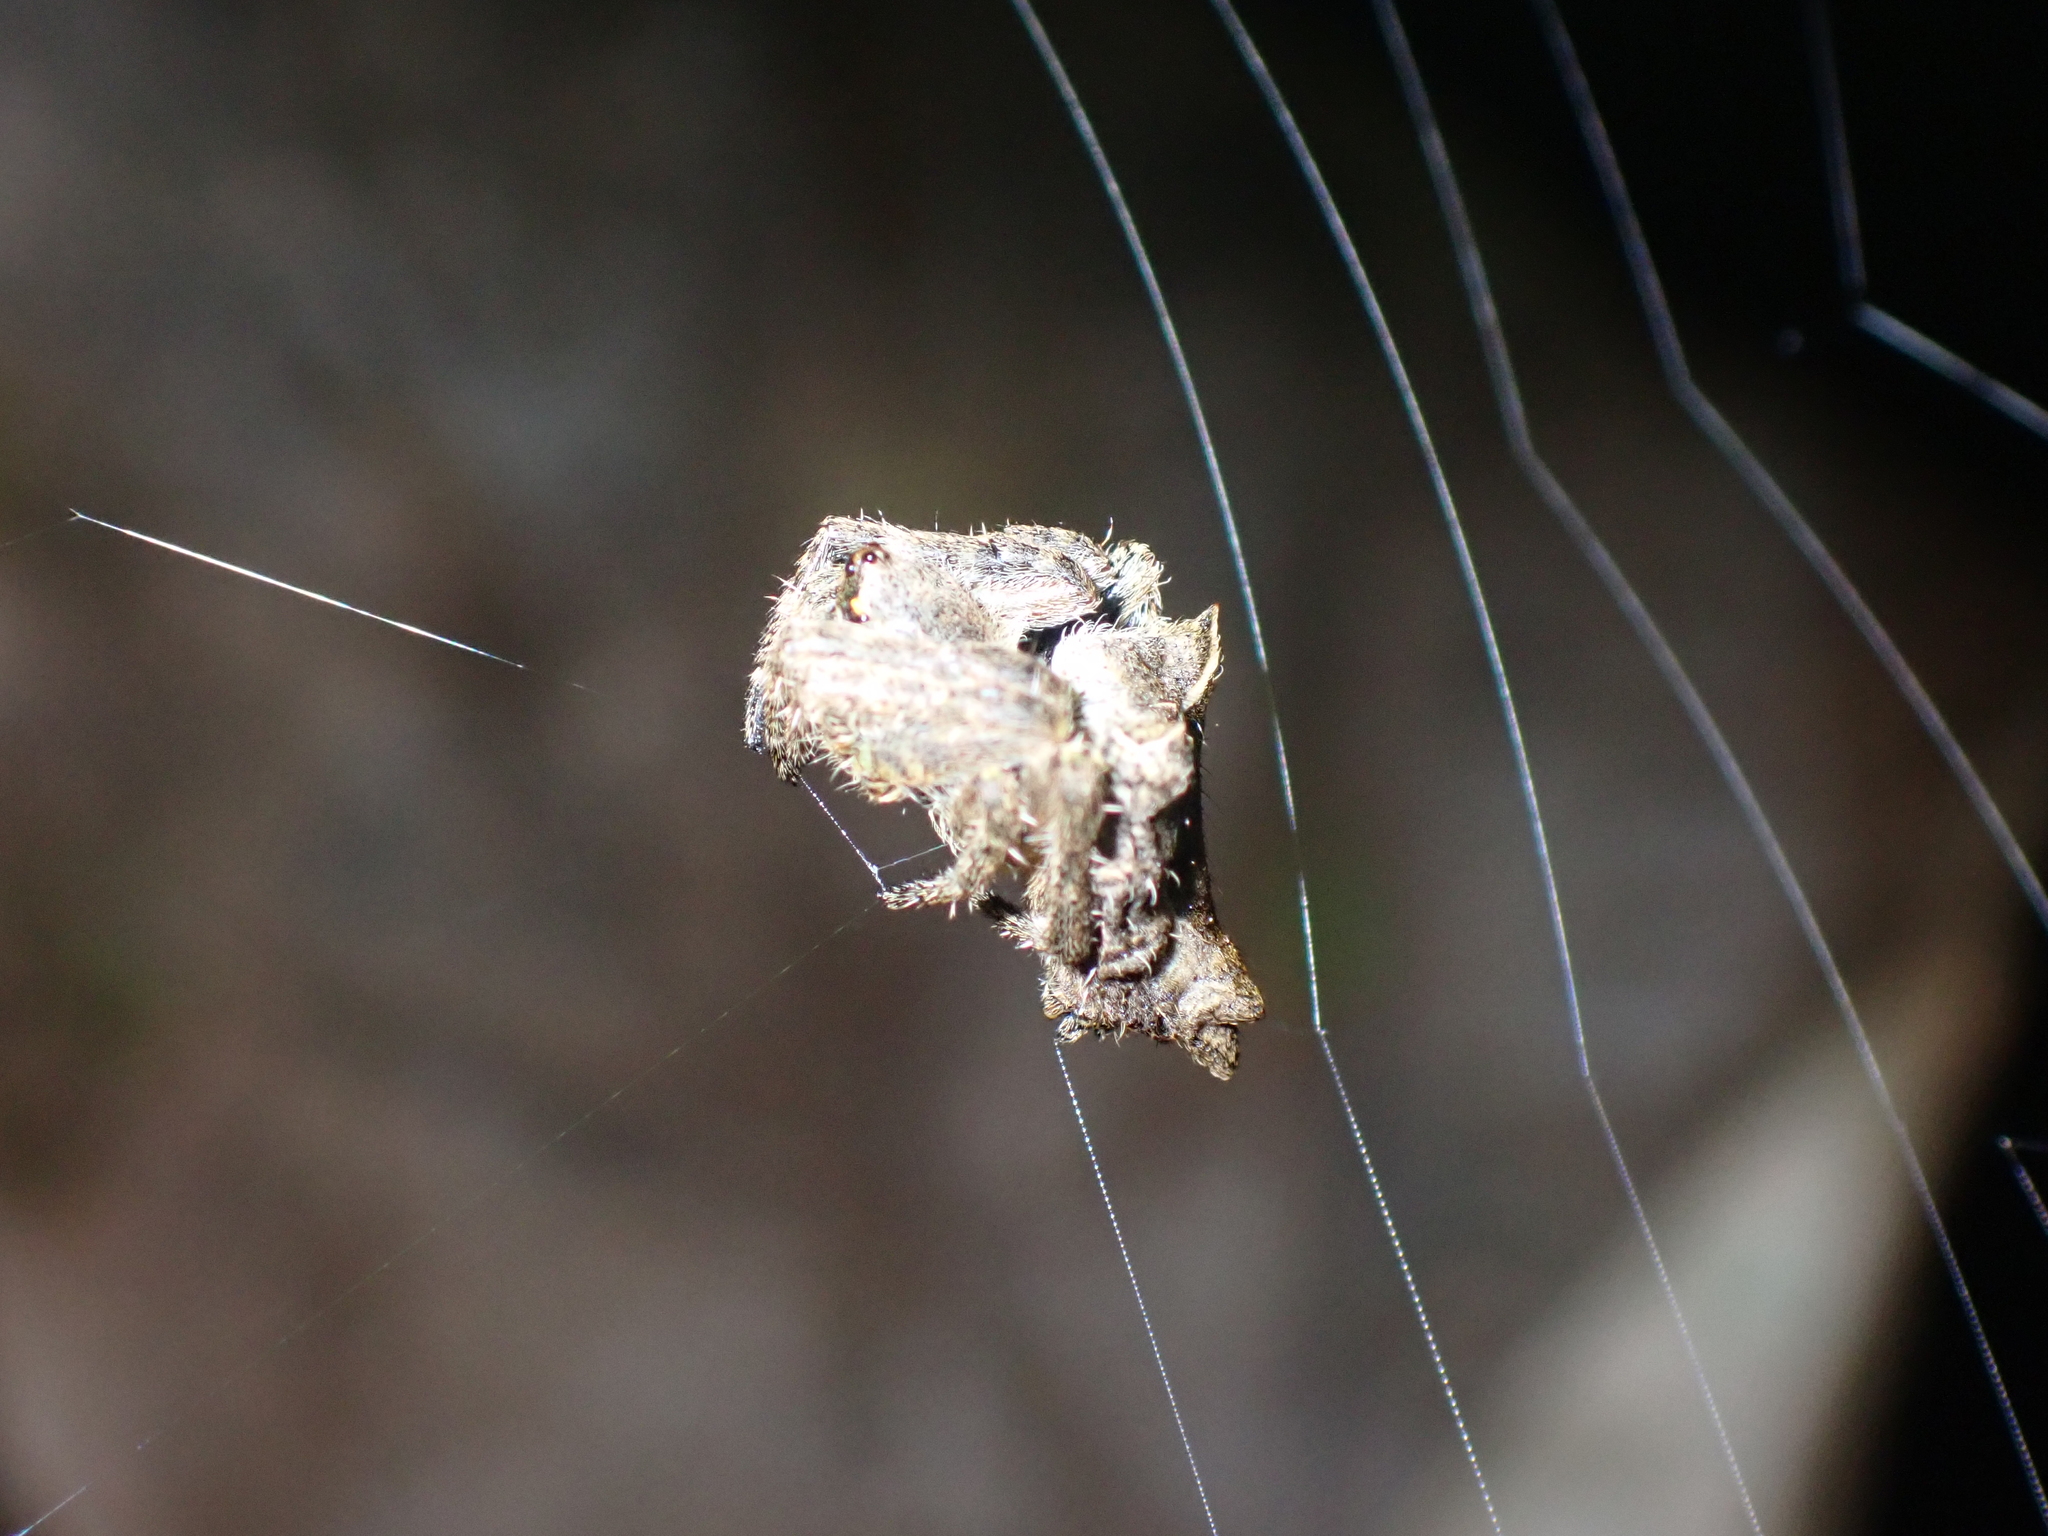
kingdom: Animalia
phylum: Arthropoda
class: Arachnida
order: Araneae
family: Araneidae
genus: Parawixia
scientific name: Parawixia dehaani
